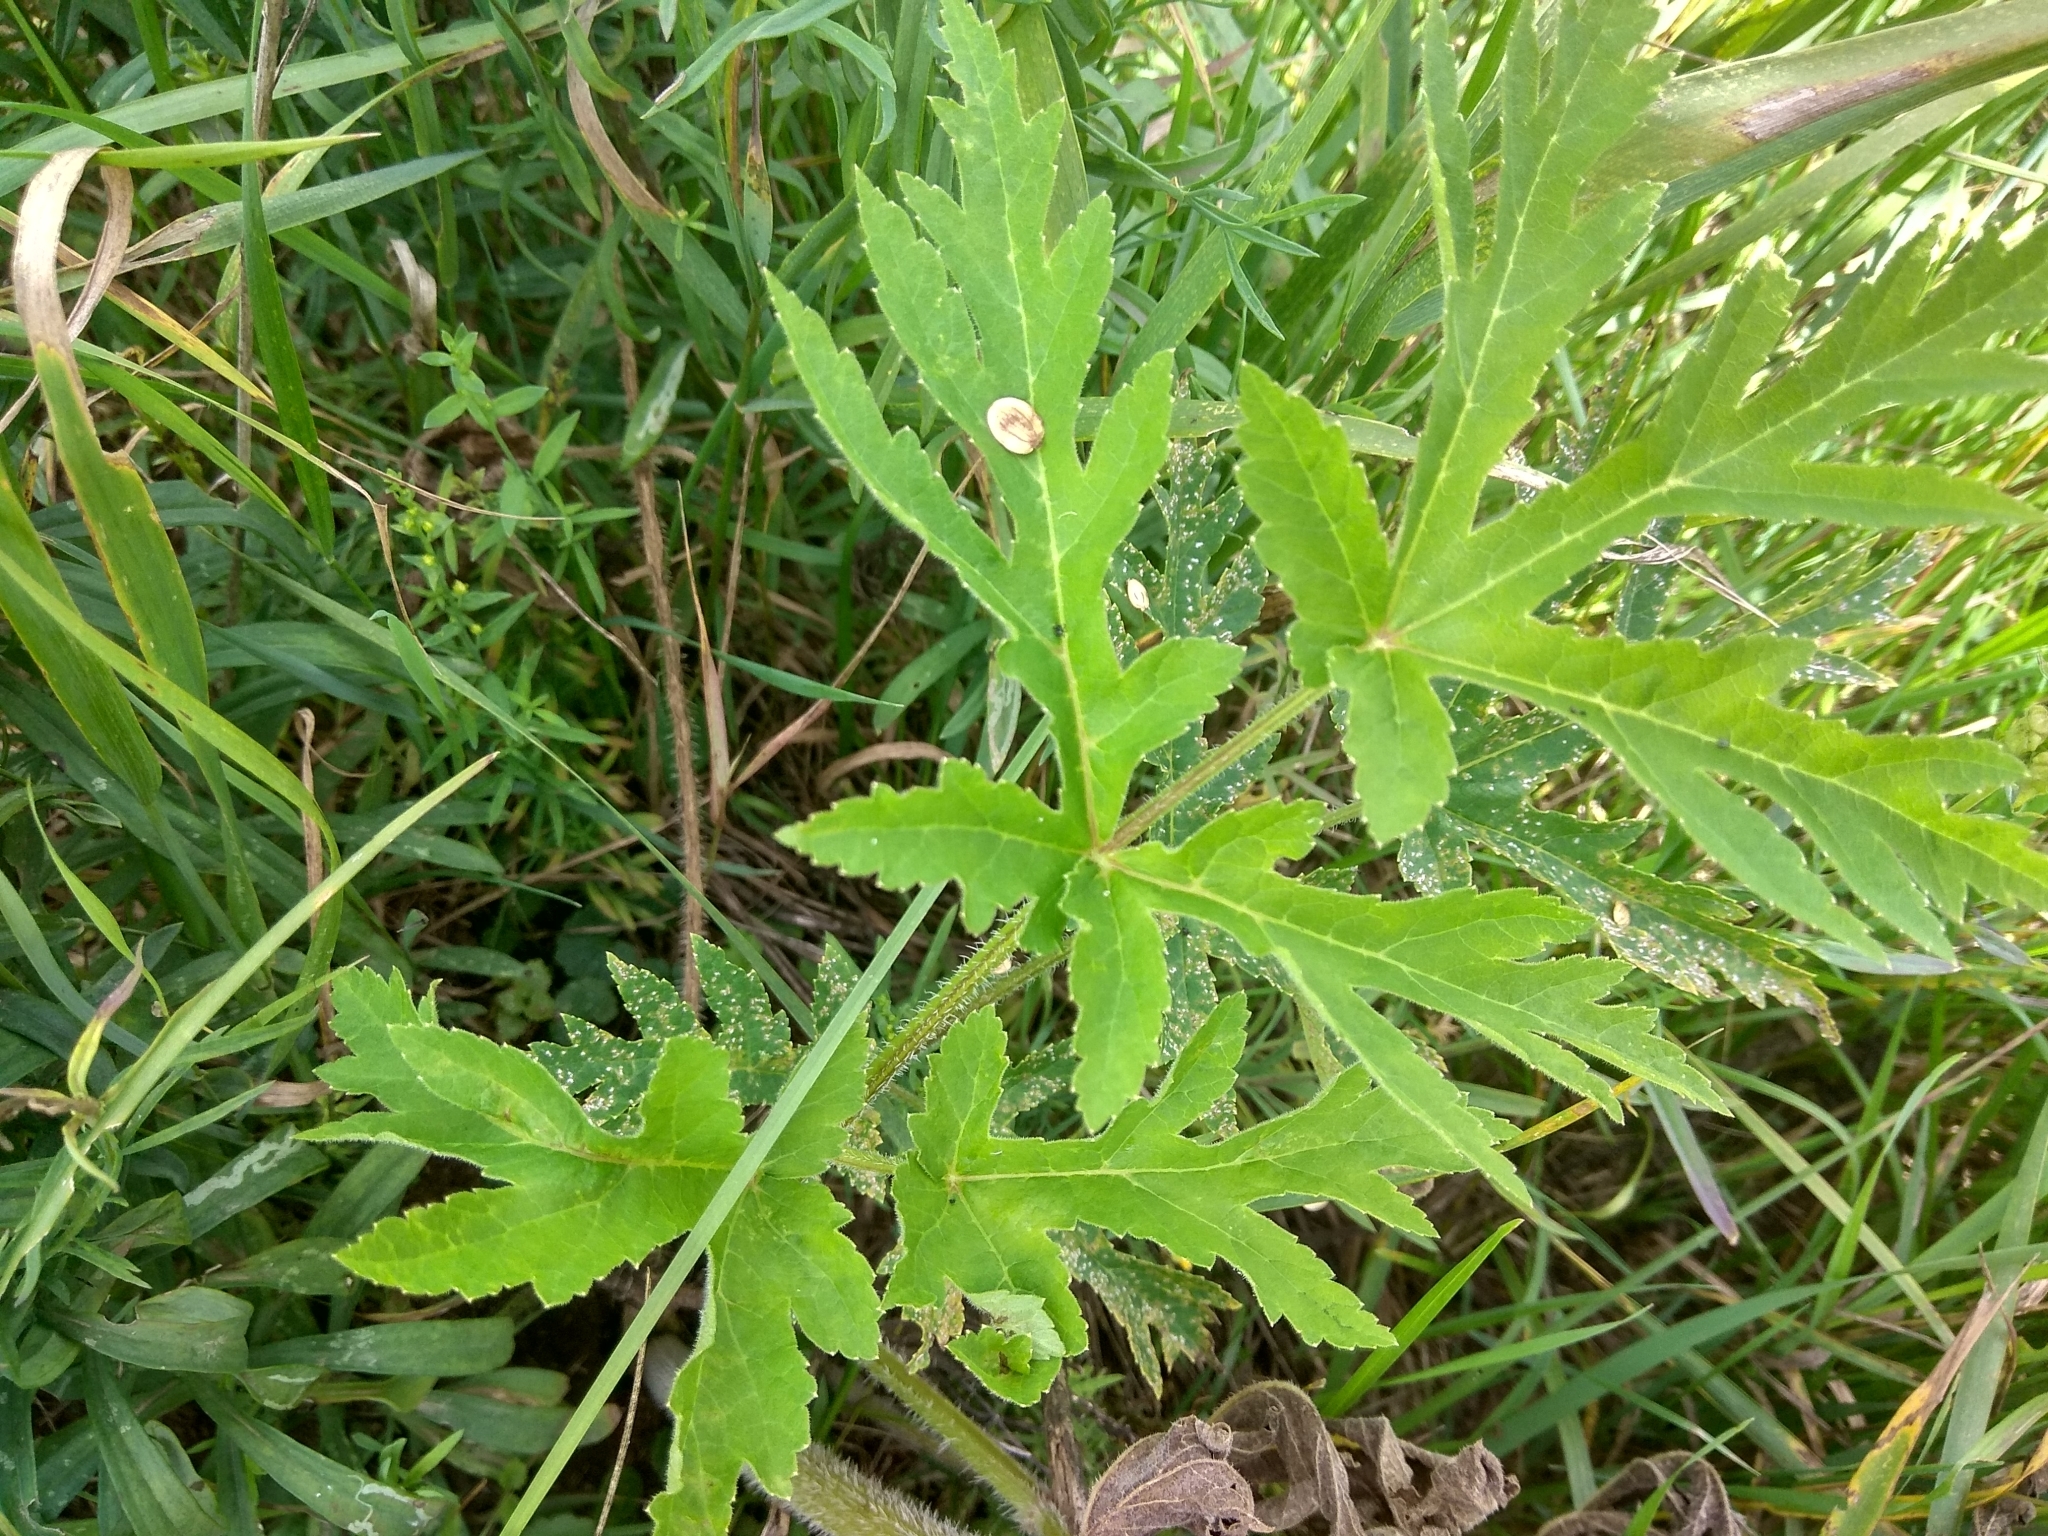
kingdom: Plantae
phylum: Tracheophyta
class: Magnoliopsida
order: Apiales
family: Apiaceae
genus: Heracleum
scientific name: Heracleum sphondylium
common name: Hogweed
